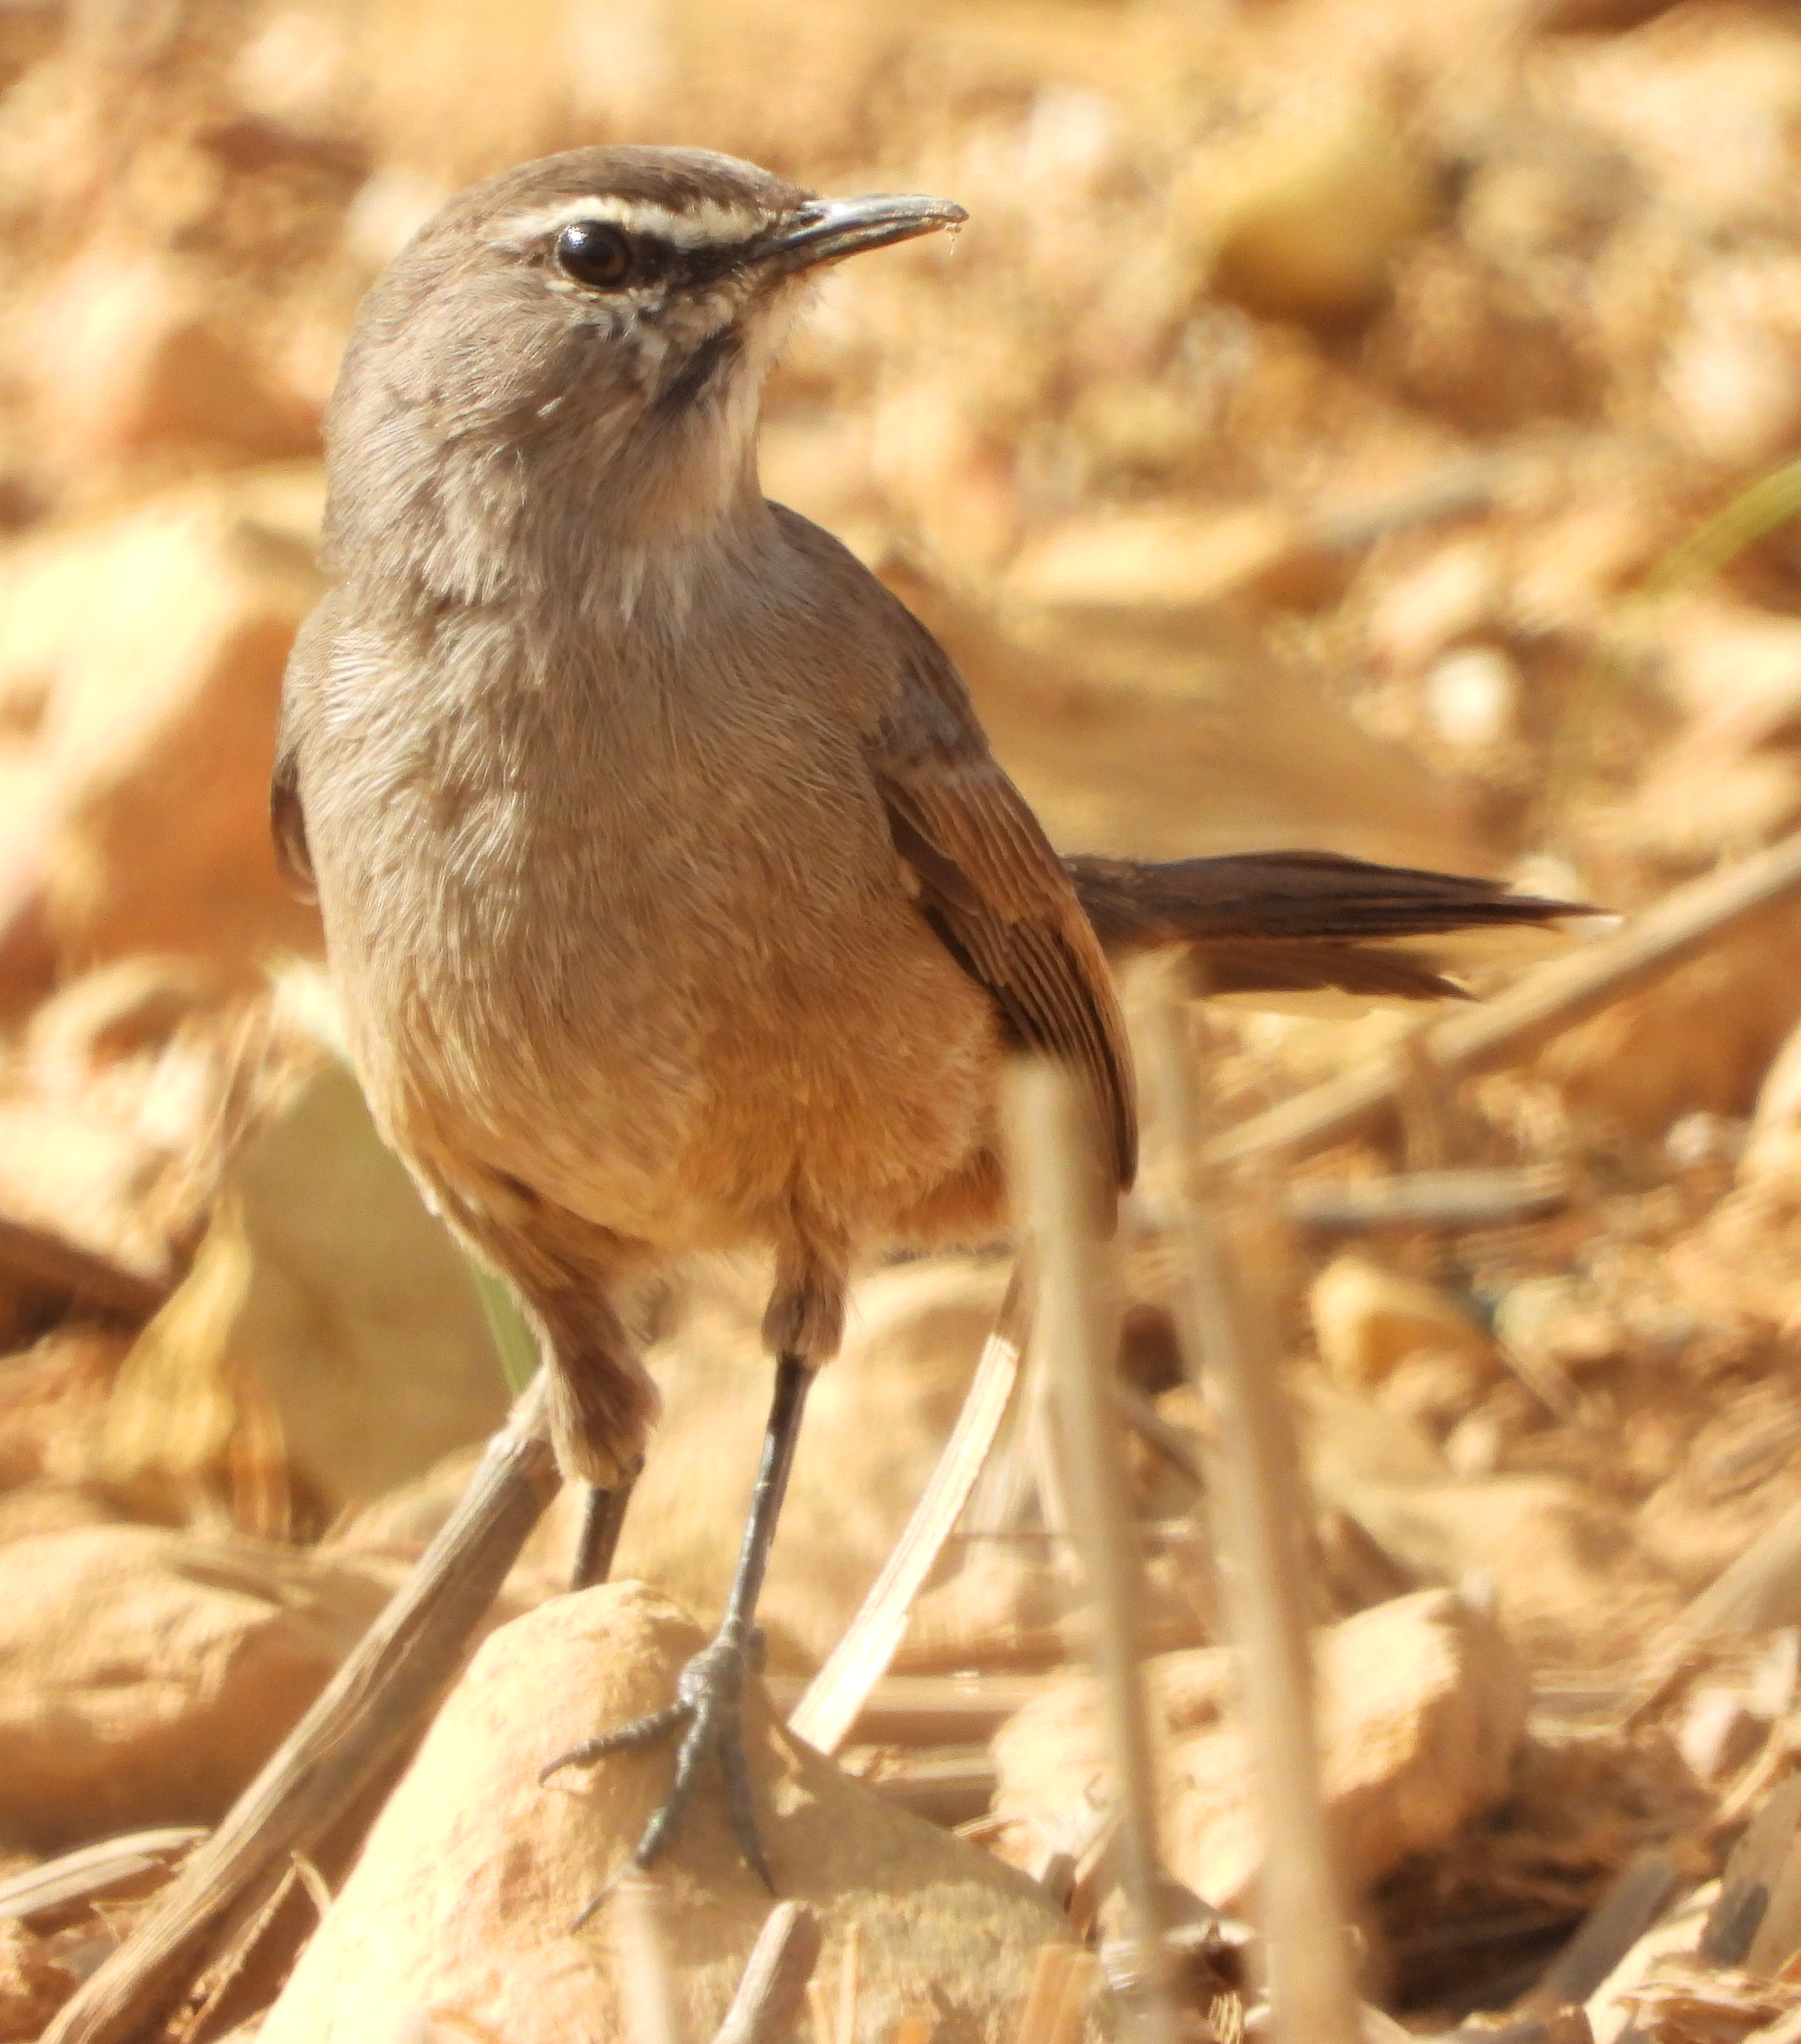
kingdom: Animalia
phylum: Chordata
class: Aves
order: Passeriformes
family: Muscicapidae
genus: Erythropygia
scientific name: Erythropygia coryphoeus
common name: Karoo scrub robin
